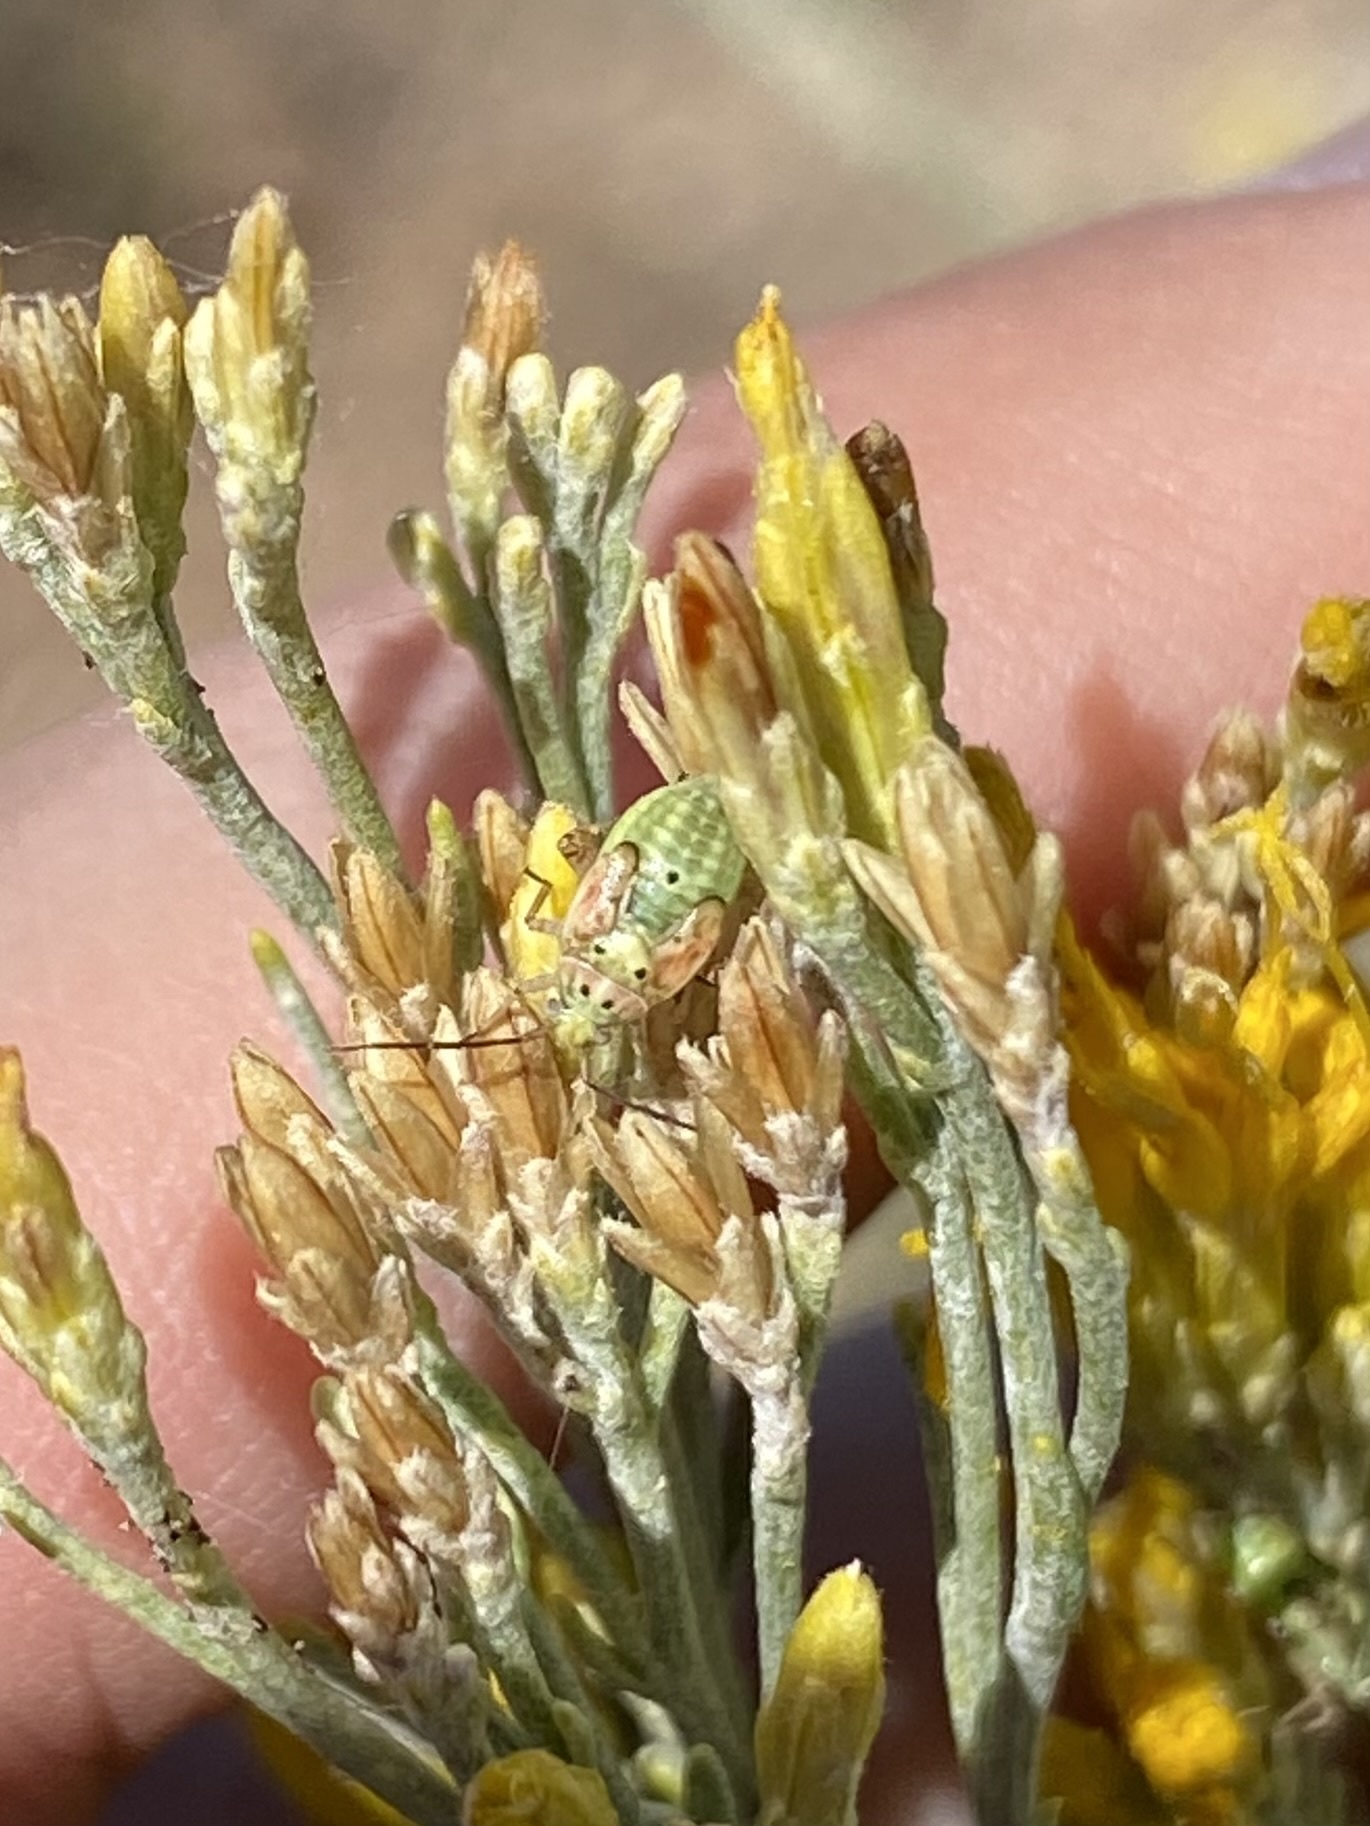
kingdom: Animalia
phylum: Arthropoda
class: Insecta
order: Hemiptera
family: Miridae
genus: Lygus
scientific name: Lygus
